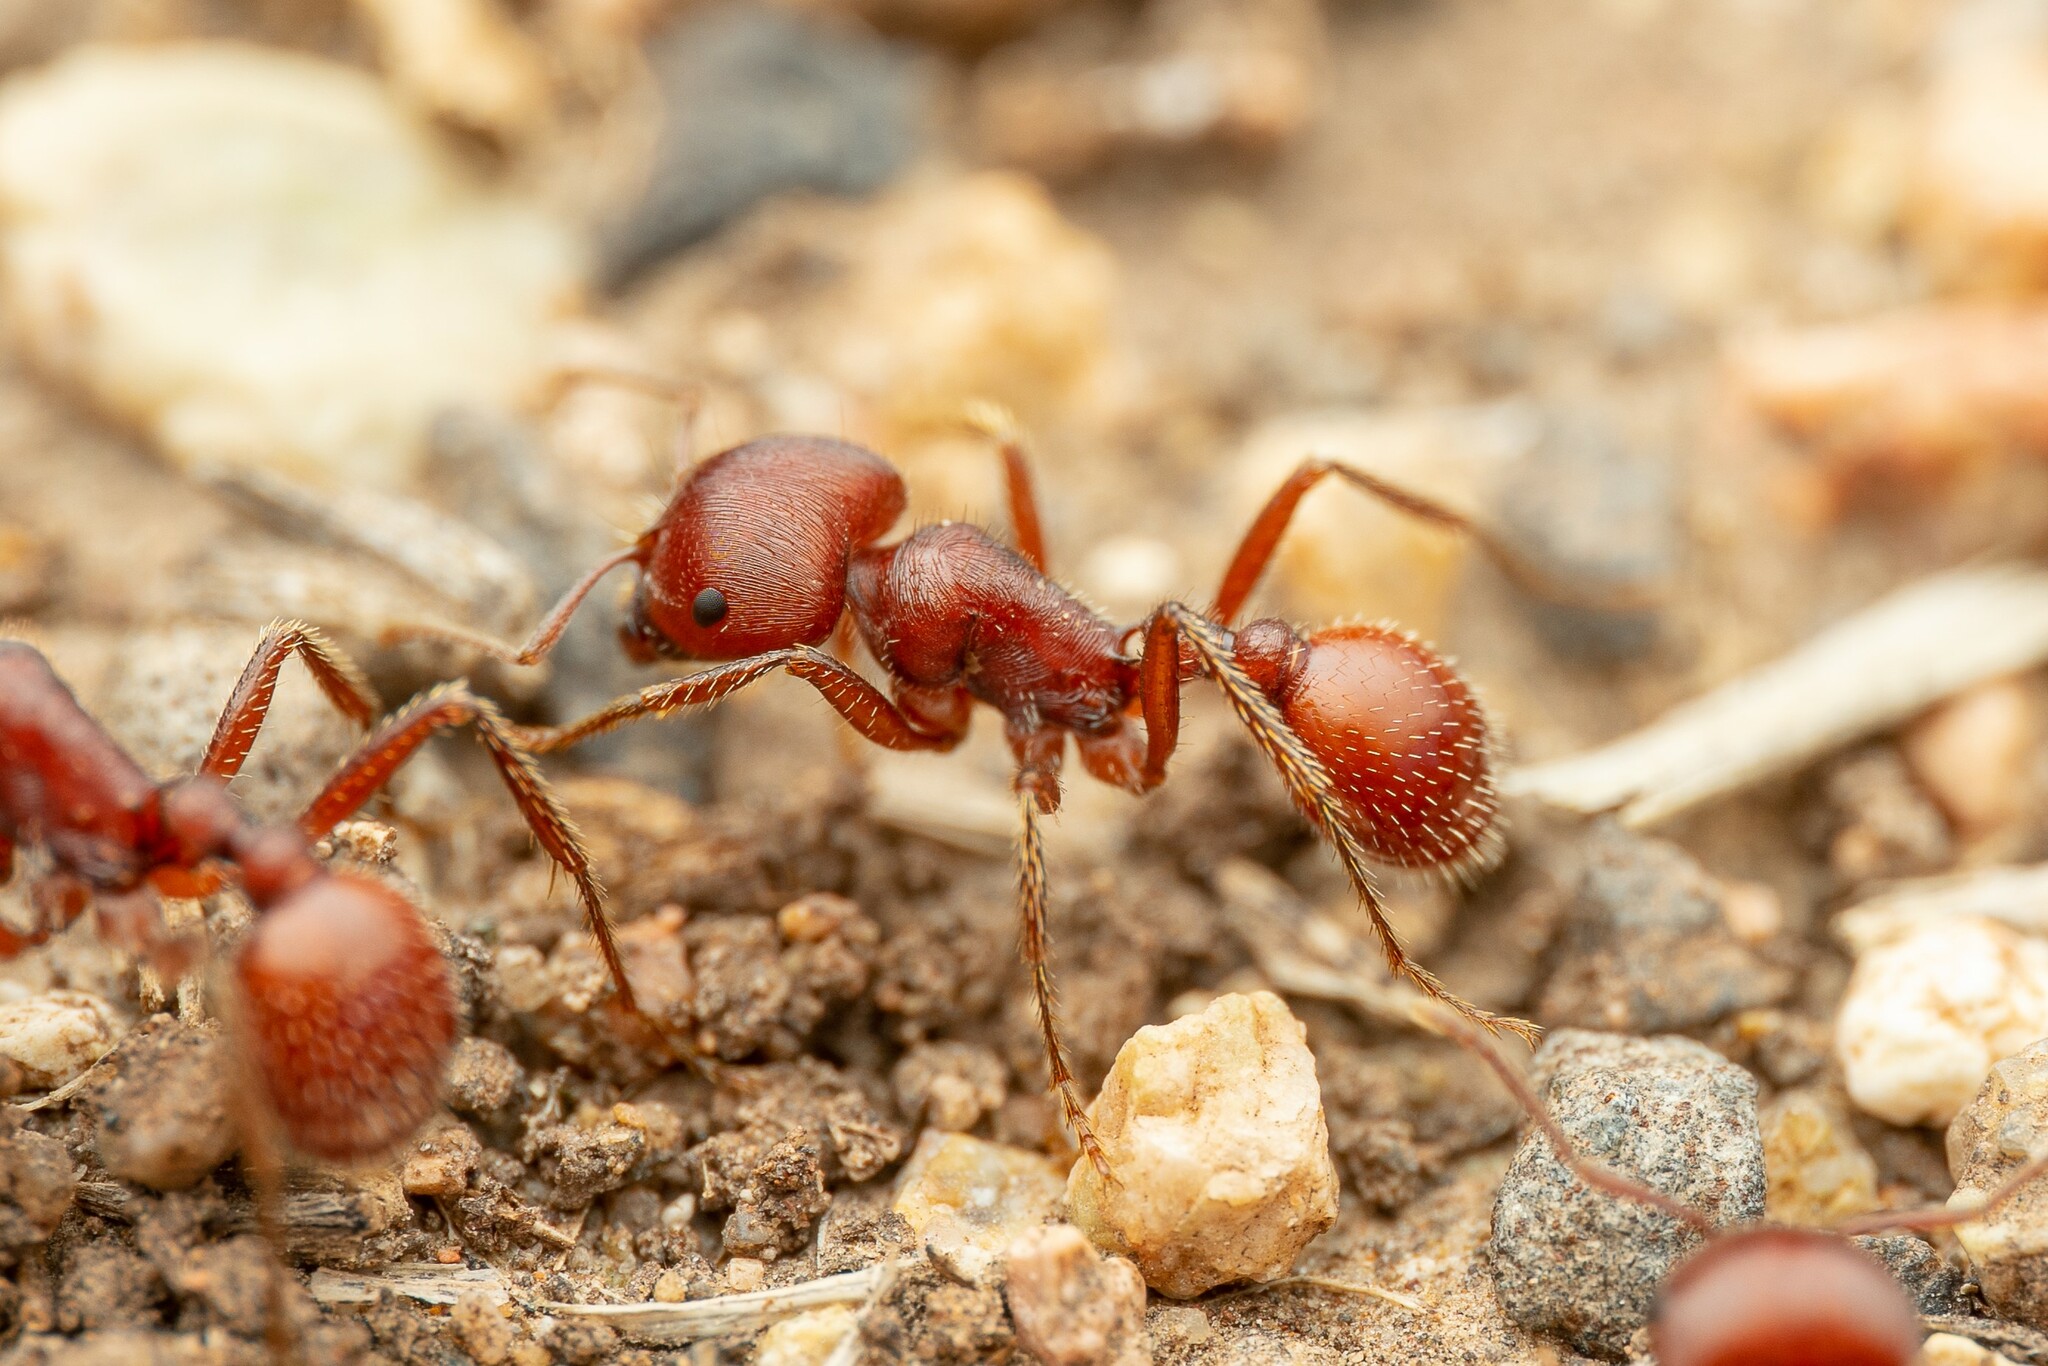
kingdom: Animalia
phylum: Arthropoda
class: Insecta
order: Hymenoptera
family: Formicidae
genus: Pogonomyrmex
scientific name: Pogonomyrmex barbatus
